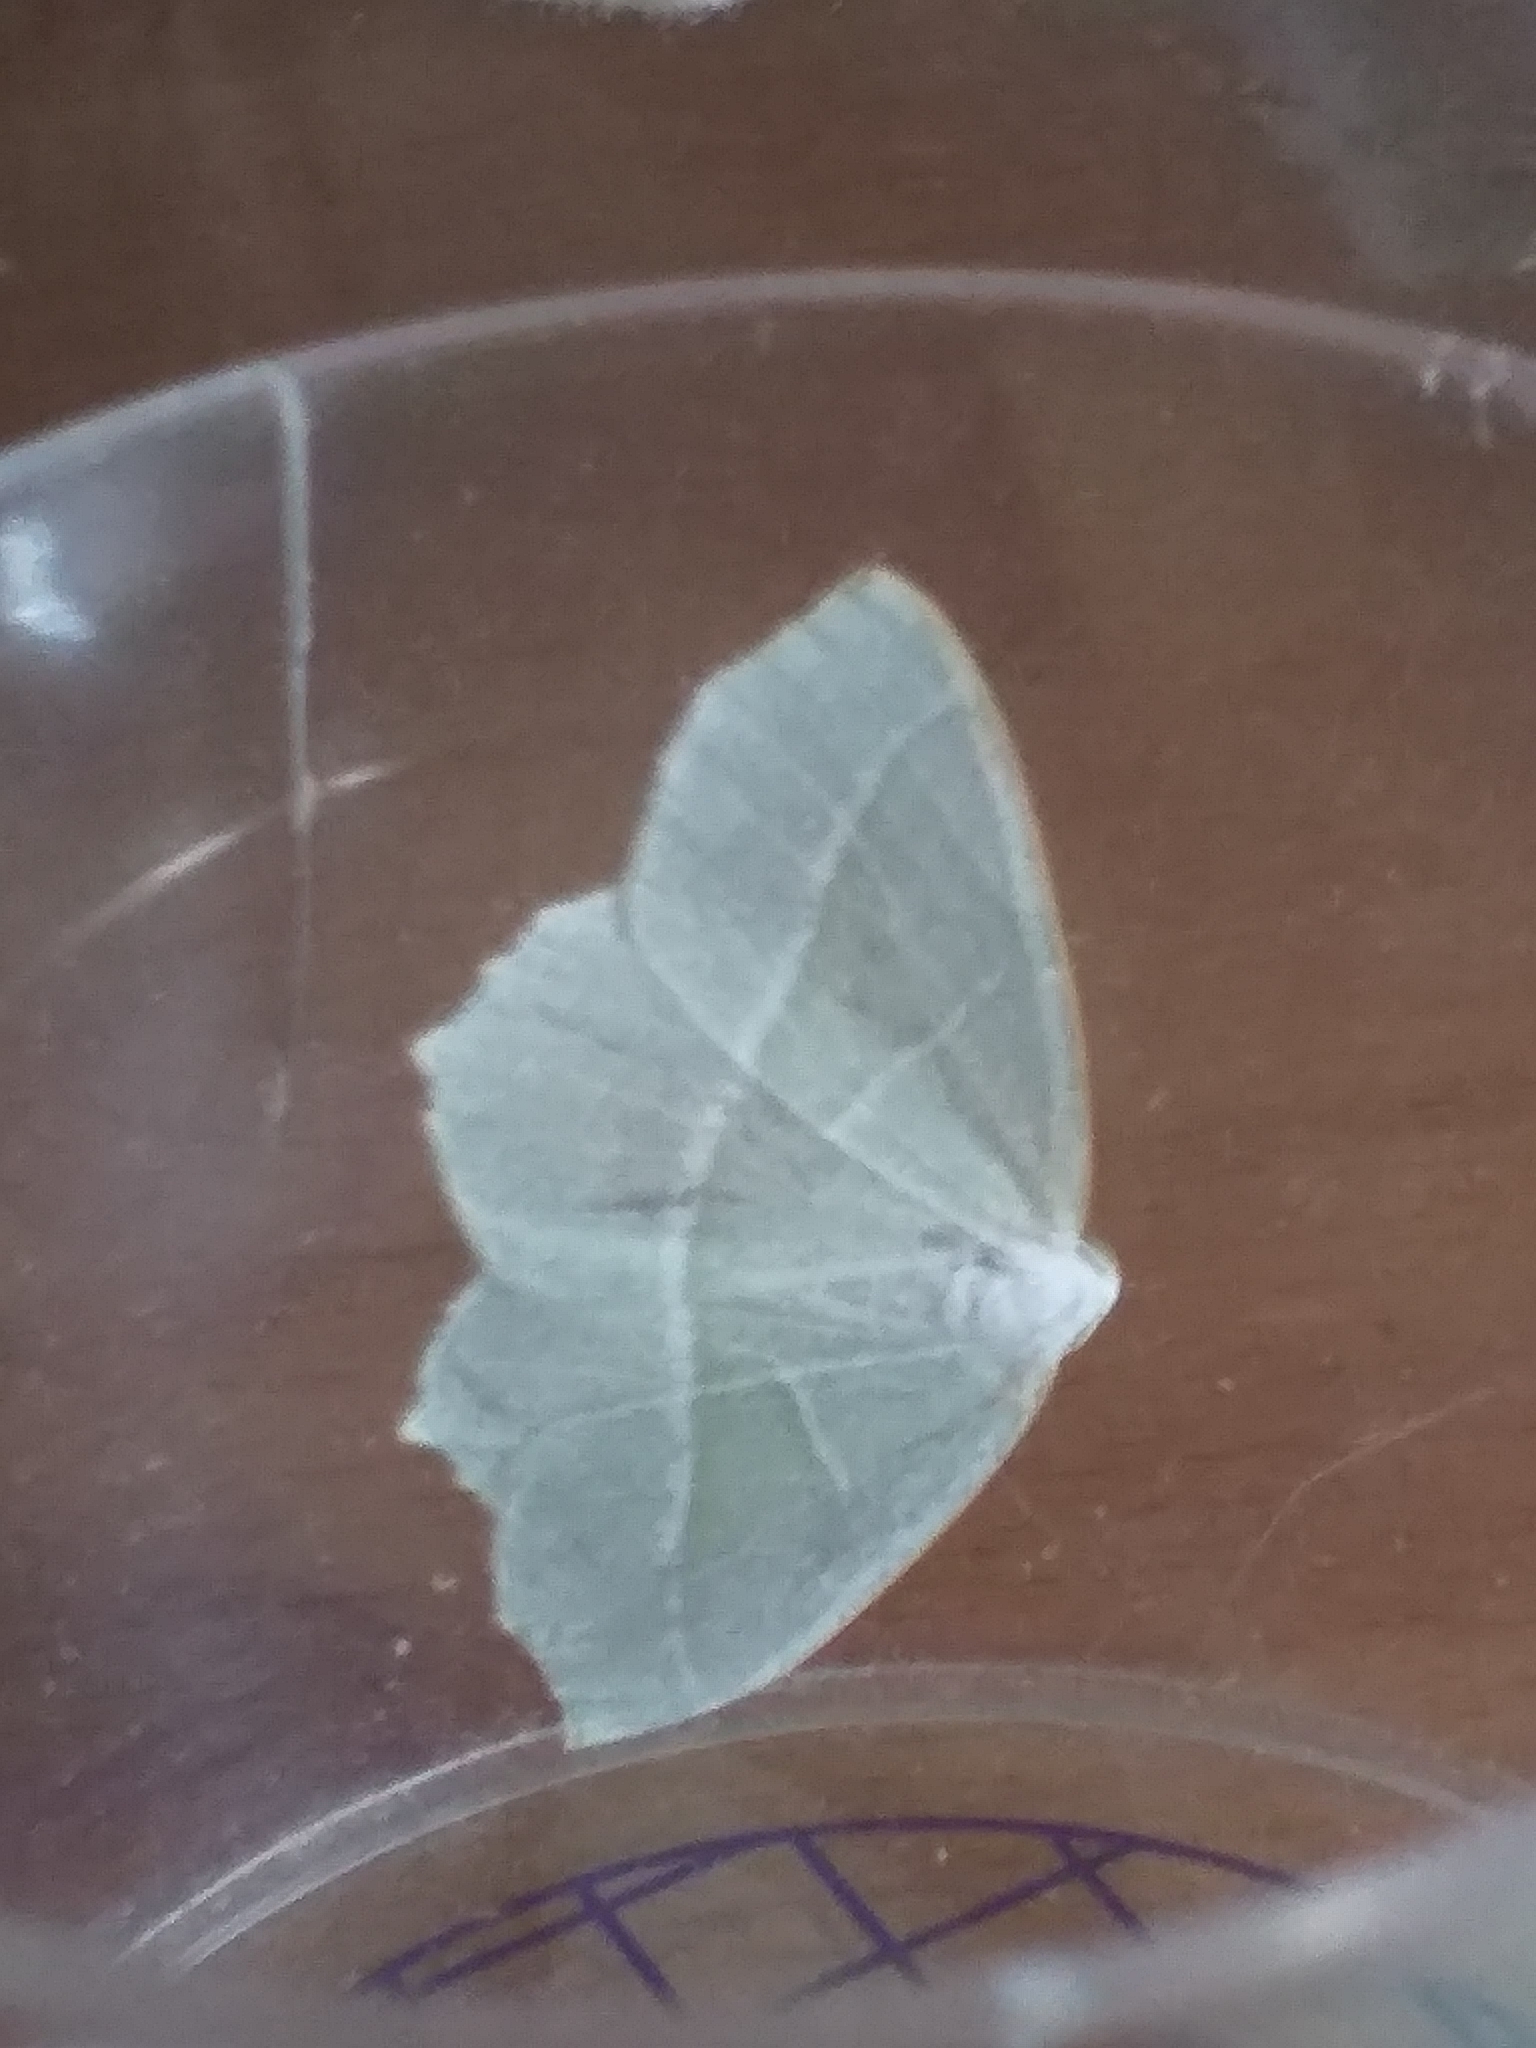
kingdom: Animalia
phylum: Arthropoda
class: Insecta
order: Lepidoptera
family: Geometridae
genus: Campaea
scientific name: Campaea margaritaria
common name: Light emerald
